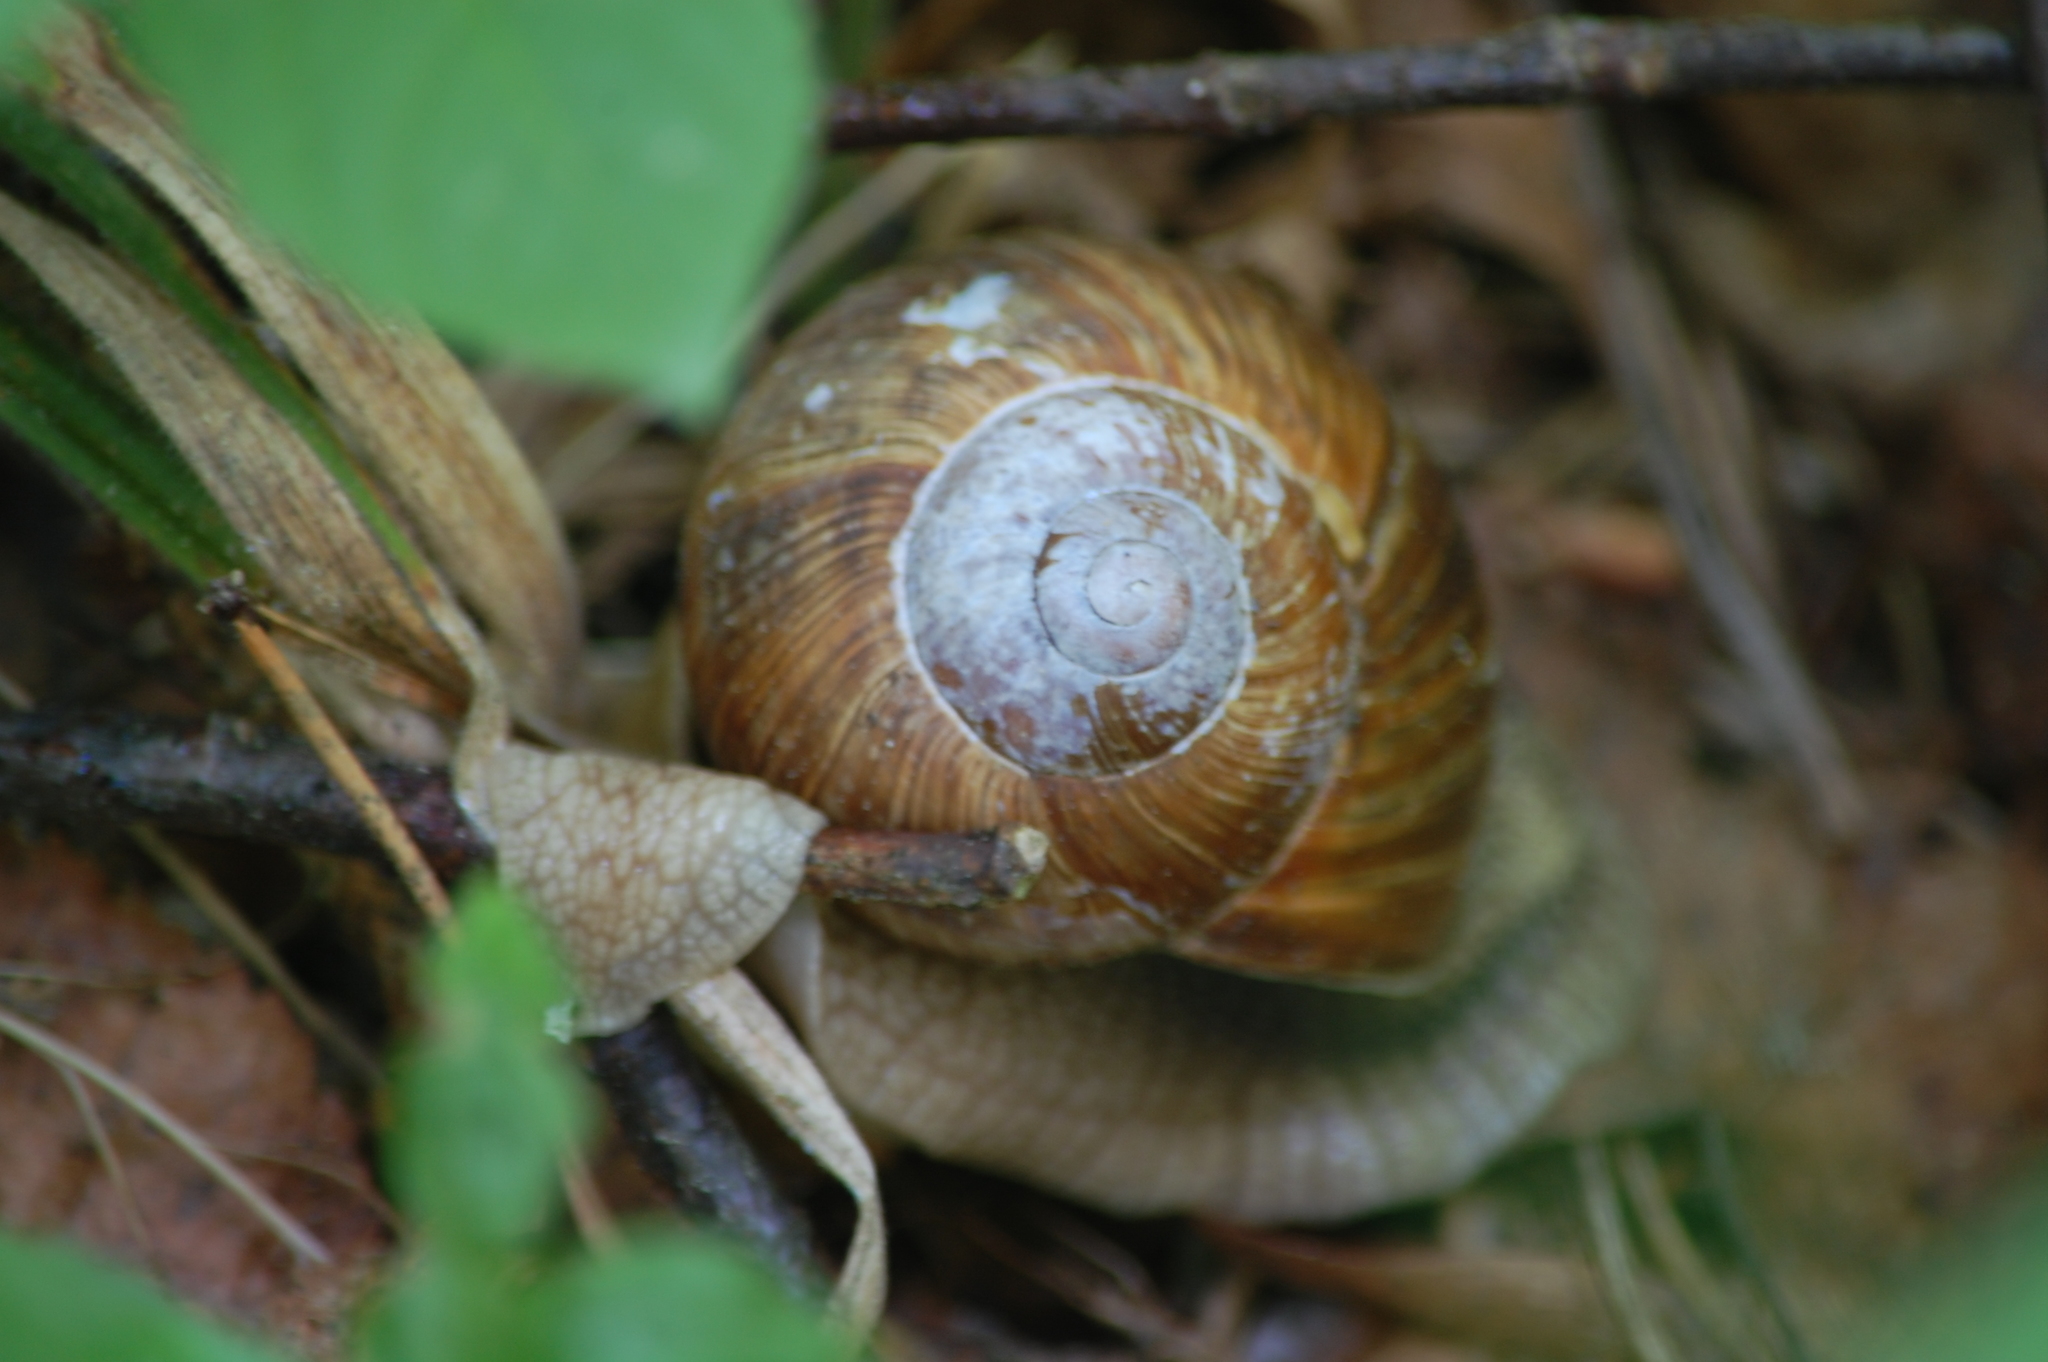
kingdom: Animalia
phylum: Mollusca
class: Gastropoda
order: Stylommatophora
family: Helicidae
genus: Helix
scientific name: Helix pomatia
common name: Roman snail
